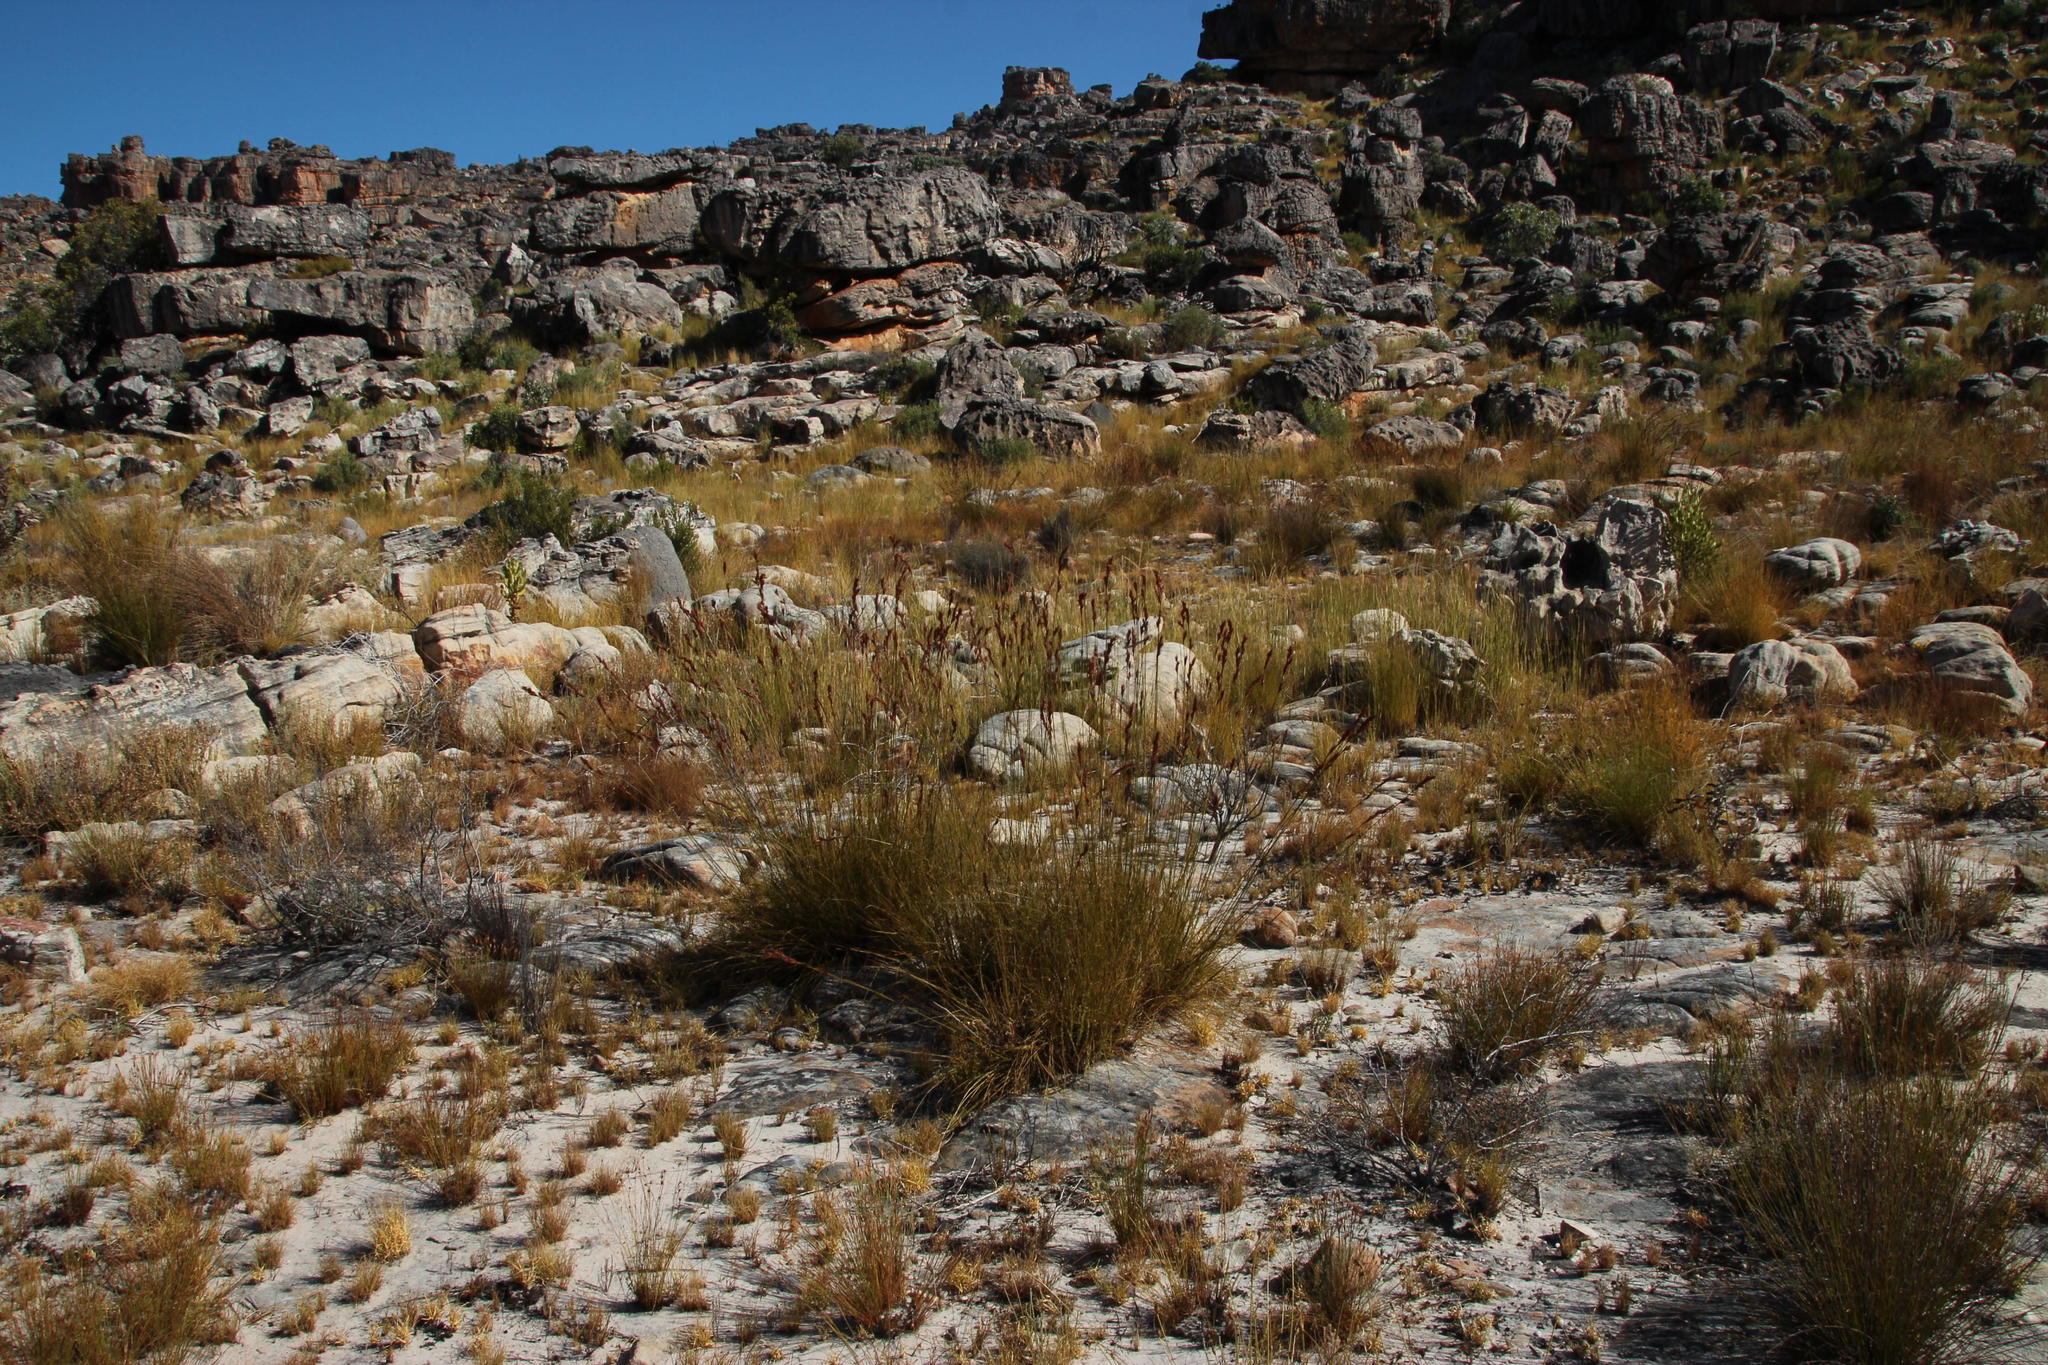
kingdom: Plantae
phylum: Tracheophyta
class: Liliopsida
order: Poales
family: Cyperaceae
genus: Tetraria
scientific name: Tetraria ustulata
